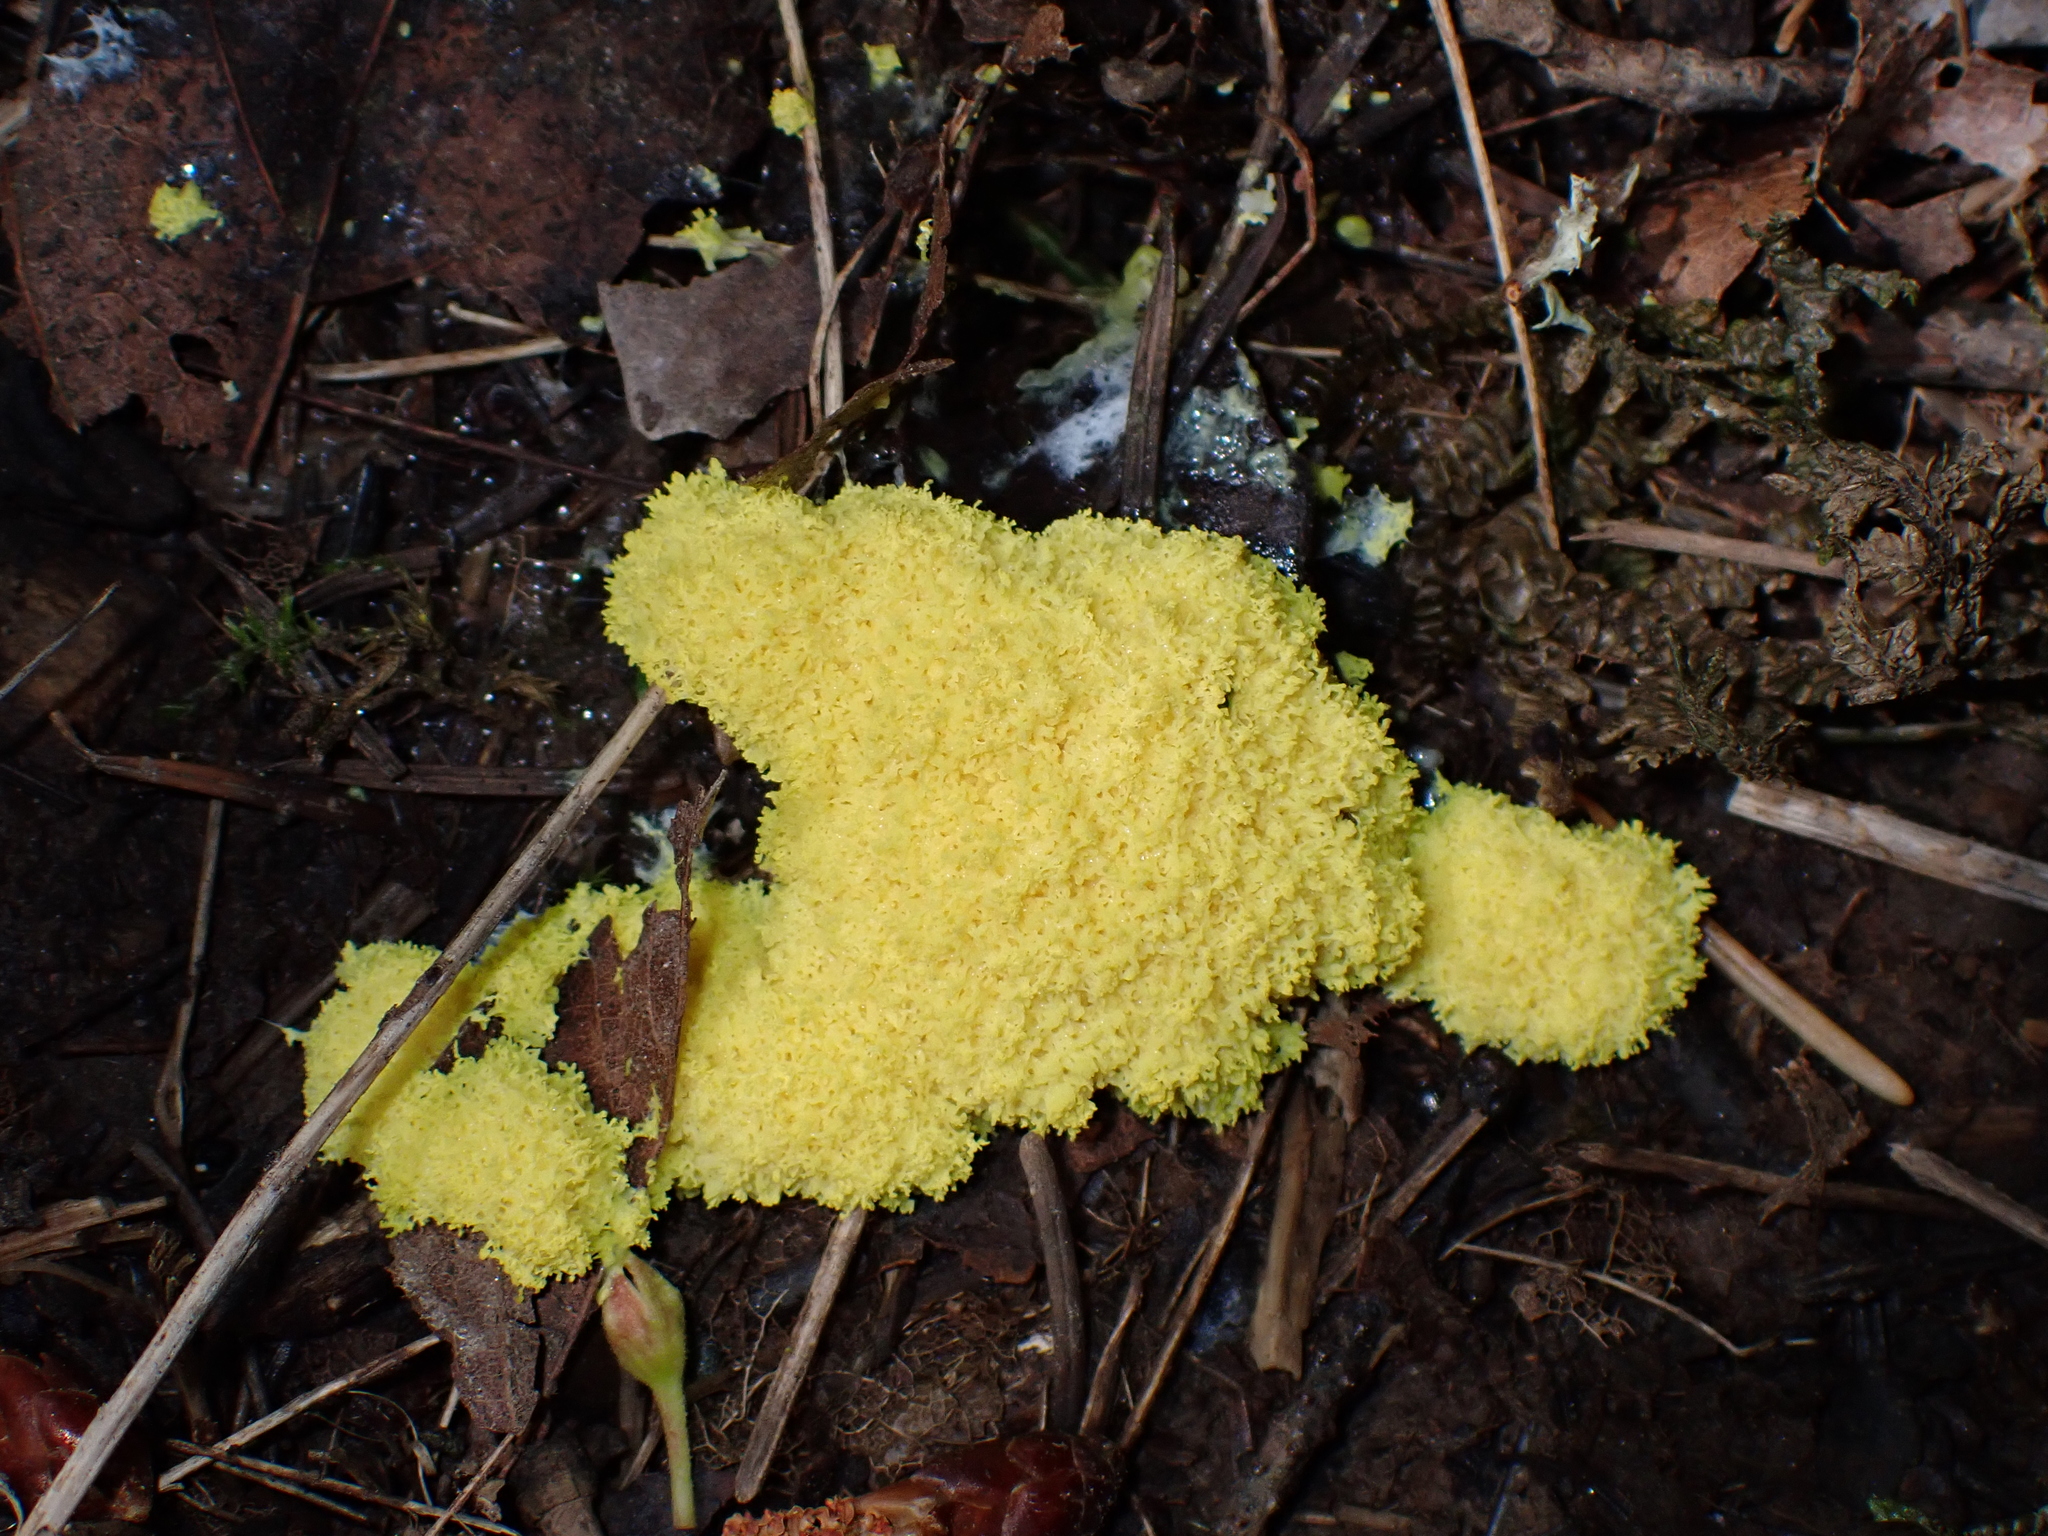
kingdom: Protozoa
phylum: Mycetozoa
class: Myxomycetes
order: Physarales
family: Physaraceae
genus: Fuligo
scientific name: Fuligo septica
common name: Dog vomit slime mold
